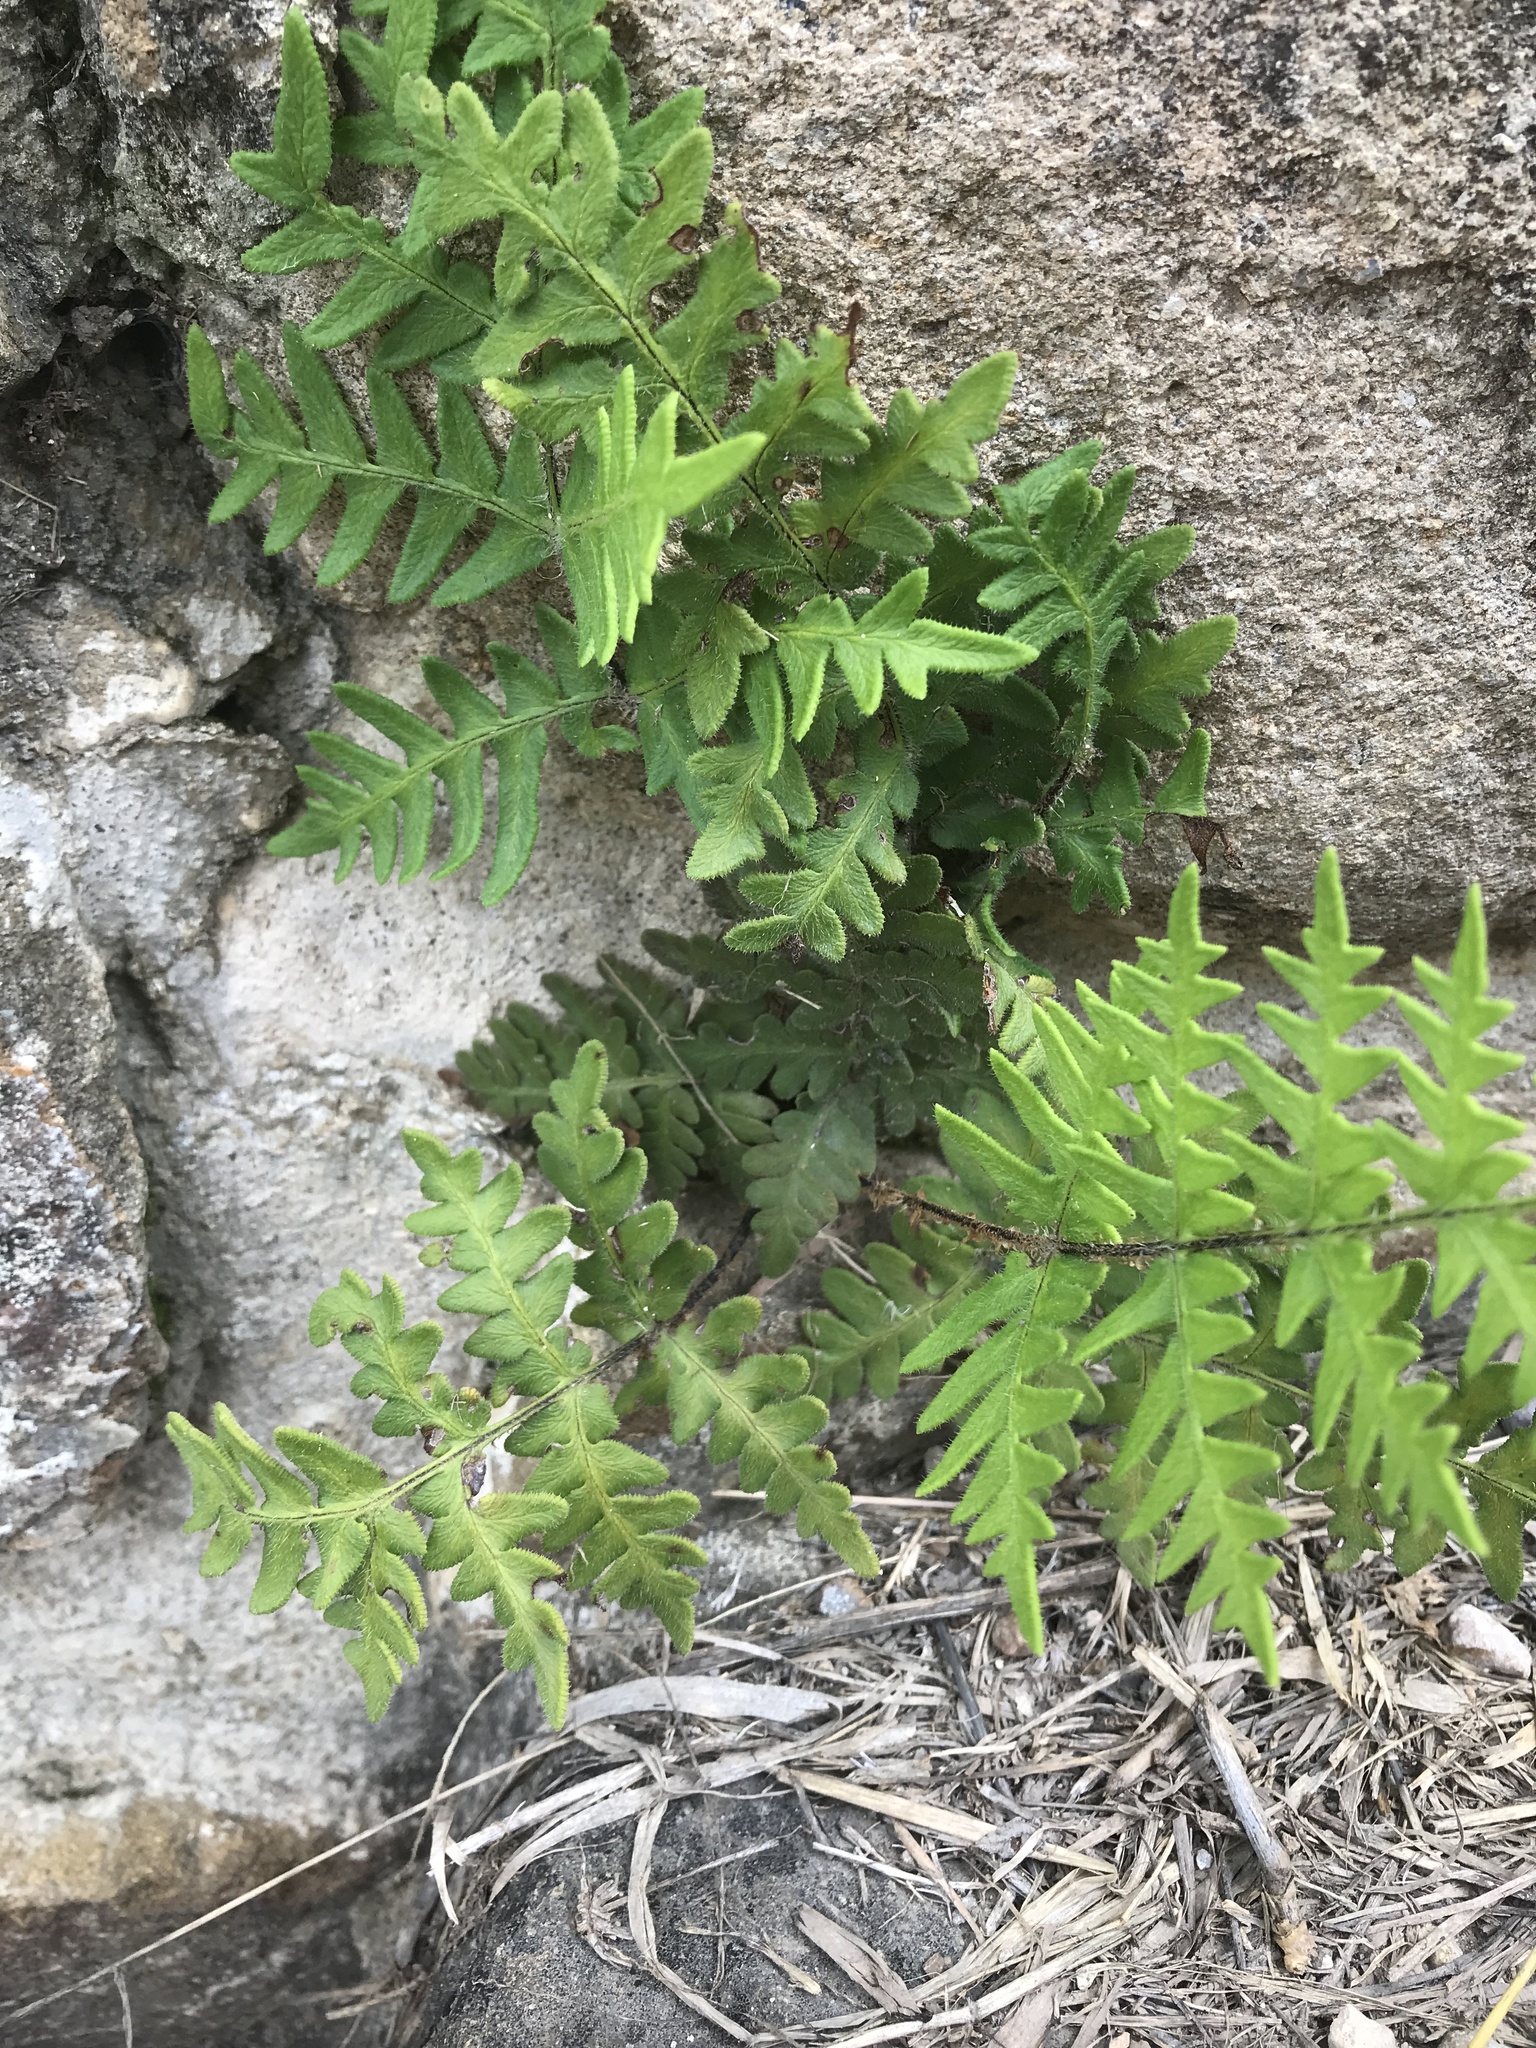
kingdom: Plantae
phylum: Tracheophyta
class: Polypodiopsida
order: Polypodiales
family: Pteridaceae
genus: Cheiloplecton
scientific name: Cheiloplecton rigidum
